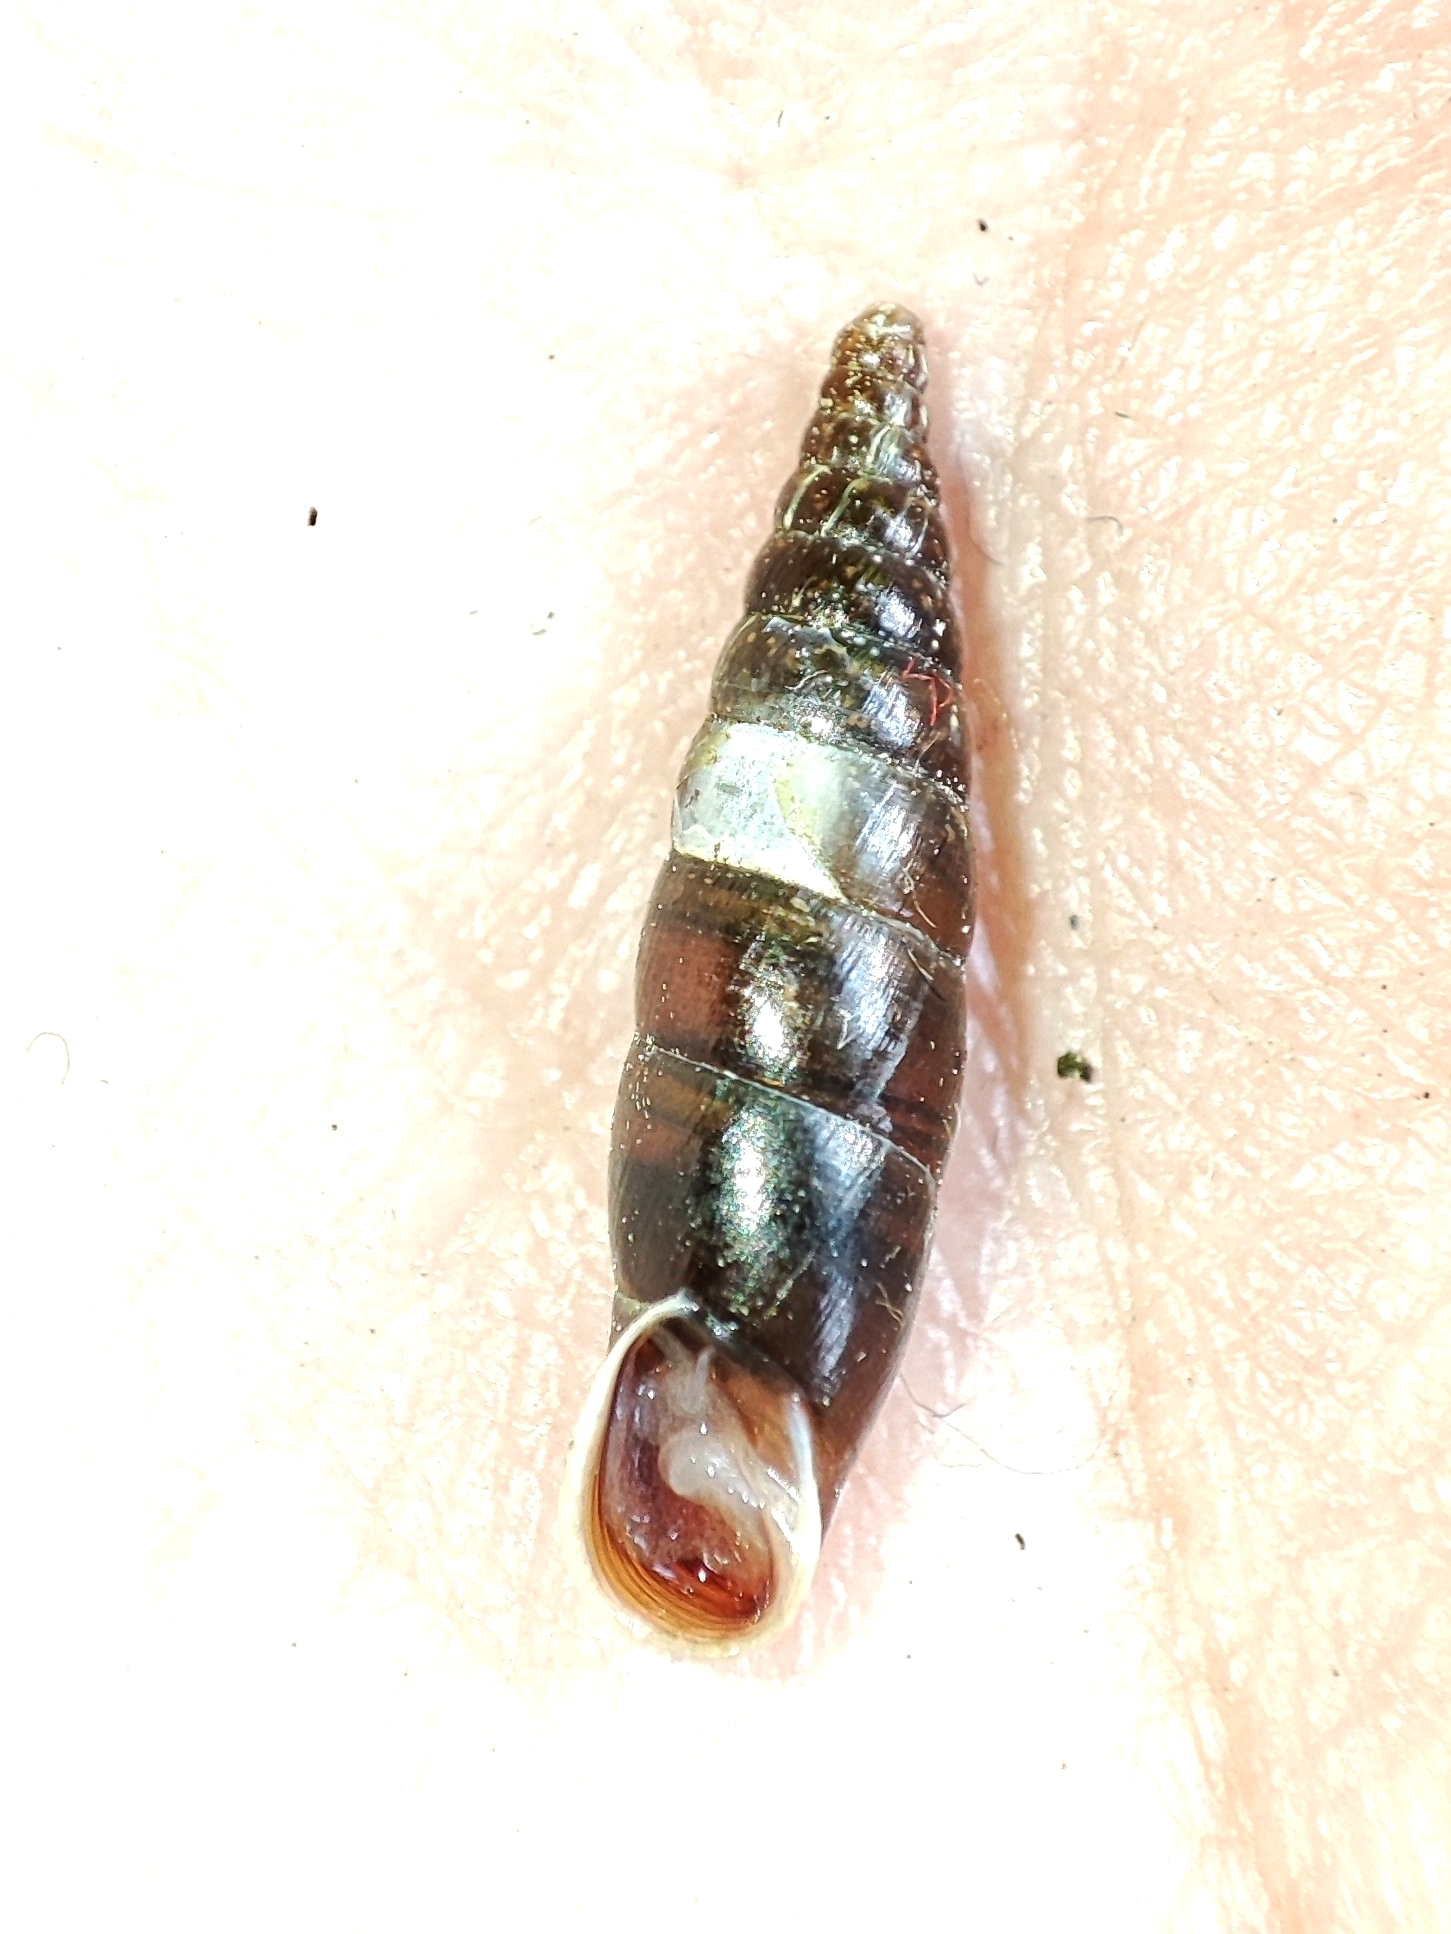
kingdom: Animalia
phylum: Mollusca
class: Gastropoda
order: Stylommatophora
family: Clausiliidae
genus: Cochlodina
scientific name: Cochlodina laminata
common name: Plaited door snail
